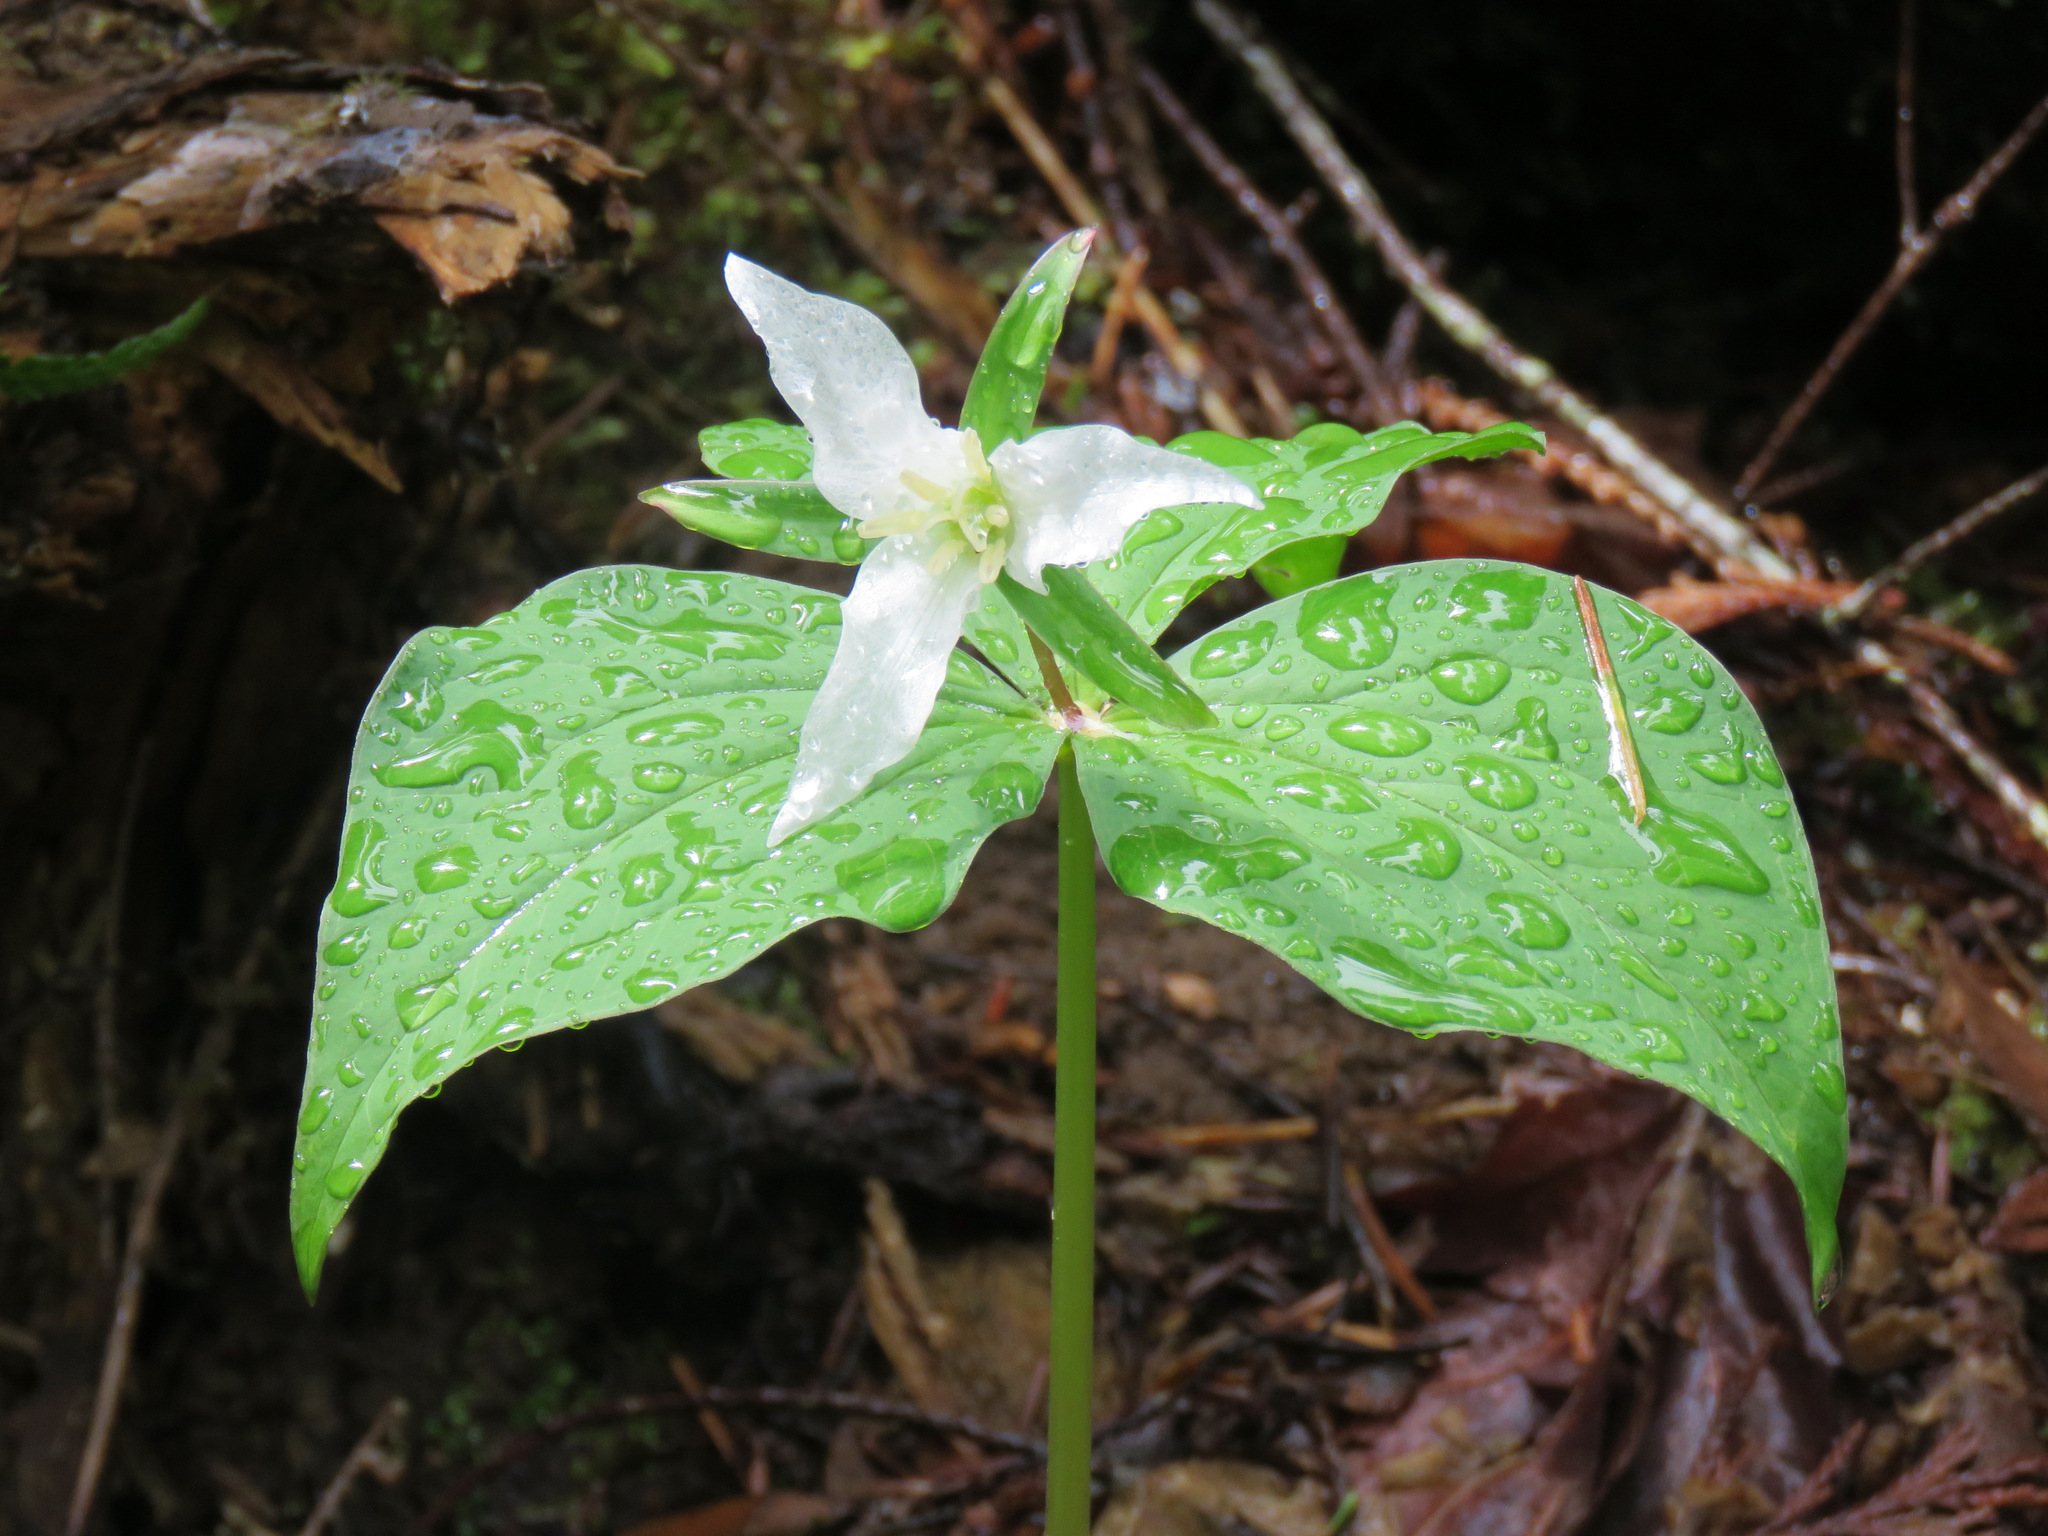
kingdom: Plantae
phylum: Tracheophyta
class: Liliopsida
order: Liliales
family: Melanthiaceae
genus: Trillium
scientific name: Trillium ovatum
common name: Pacific trillium
